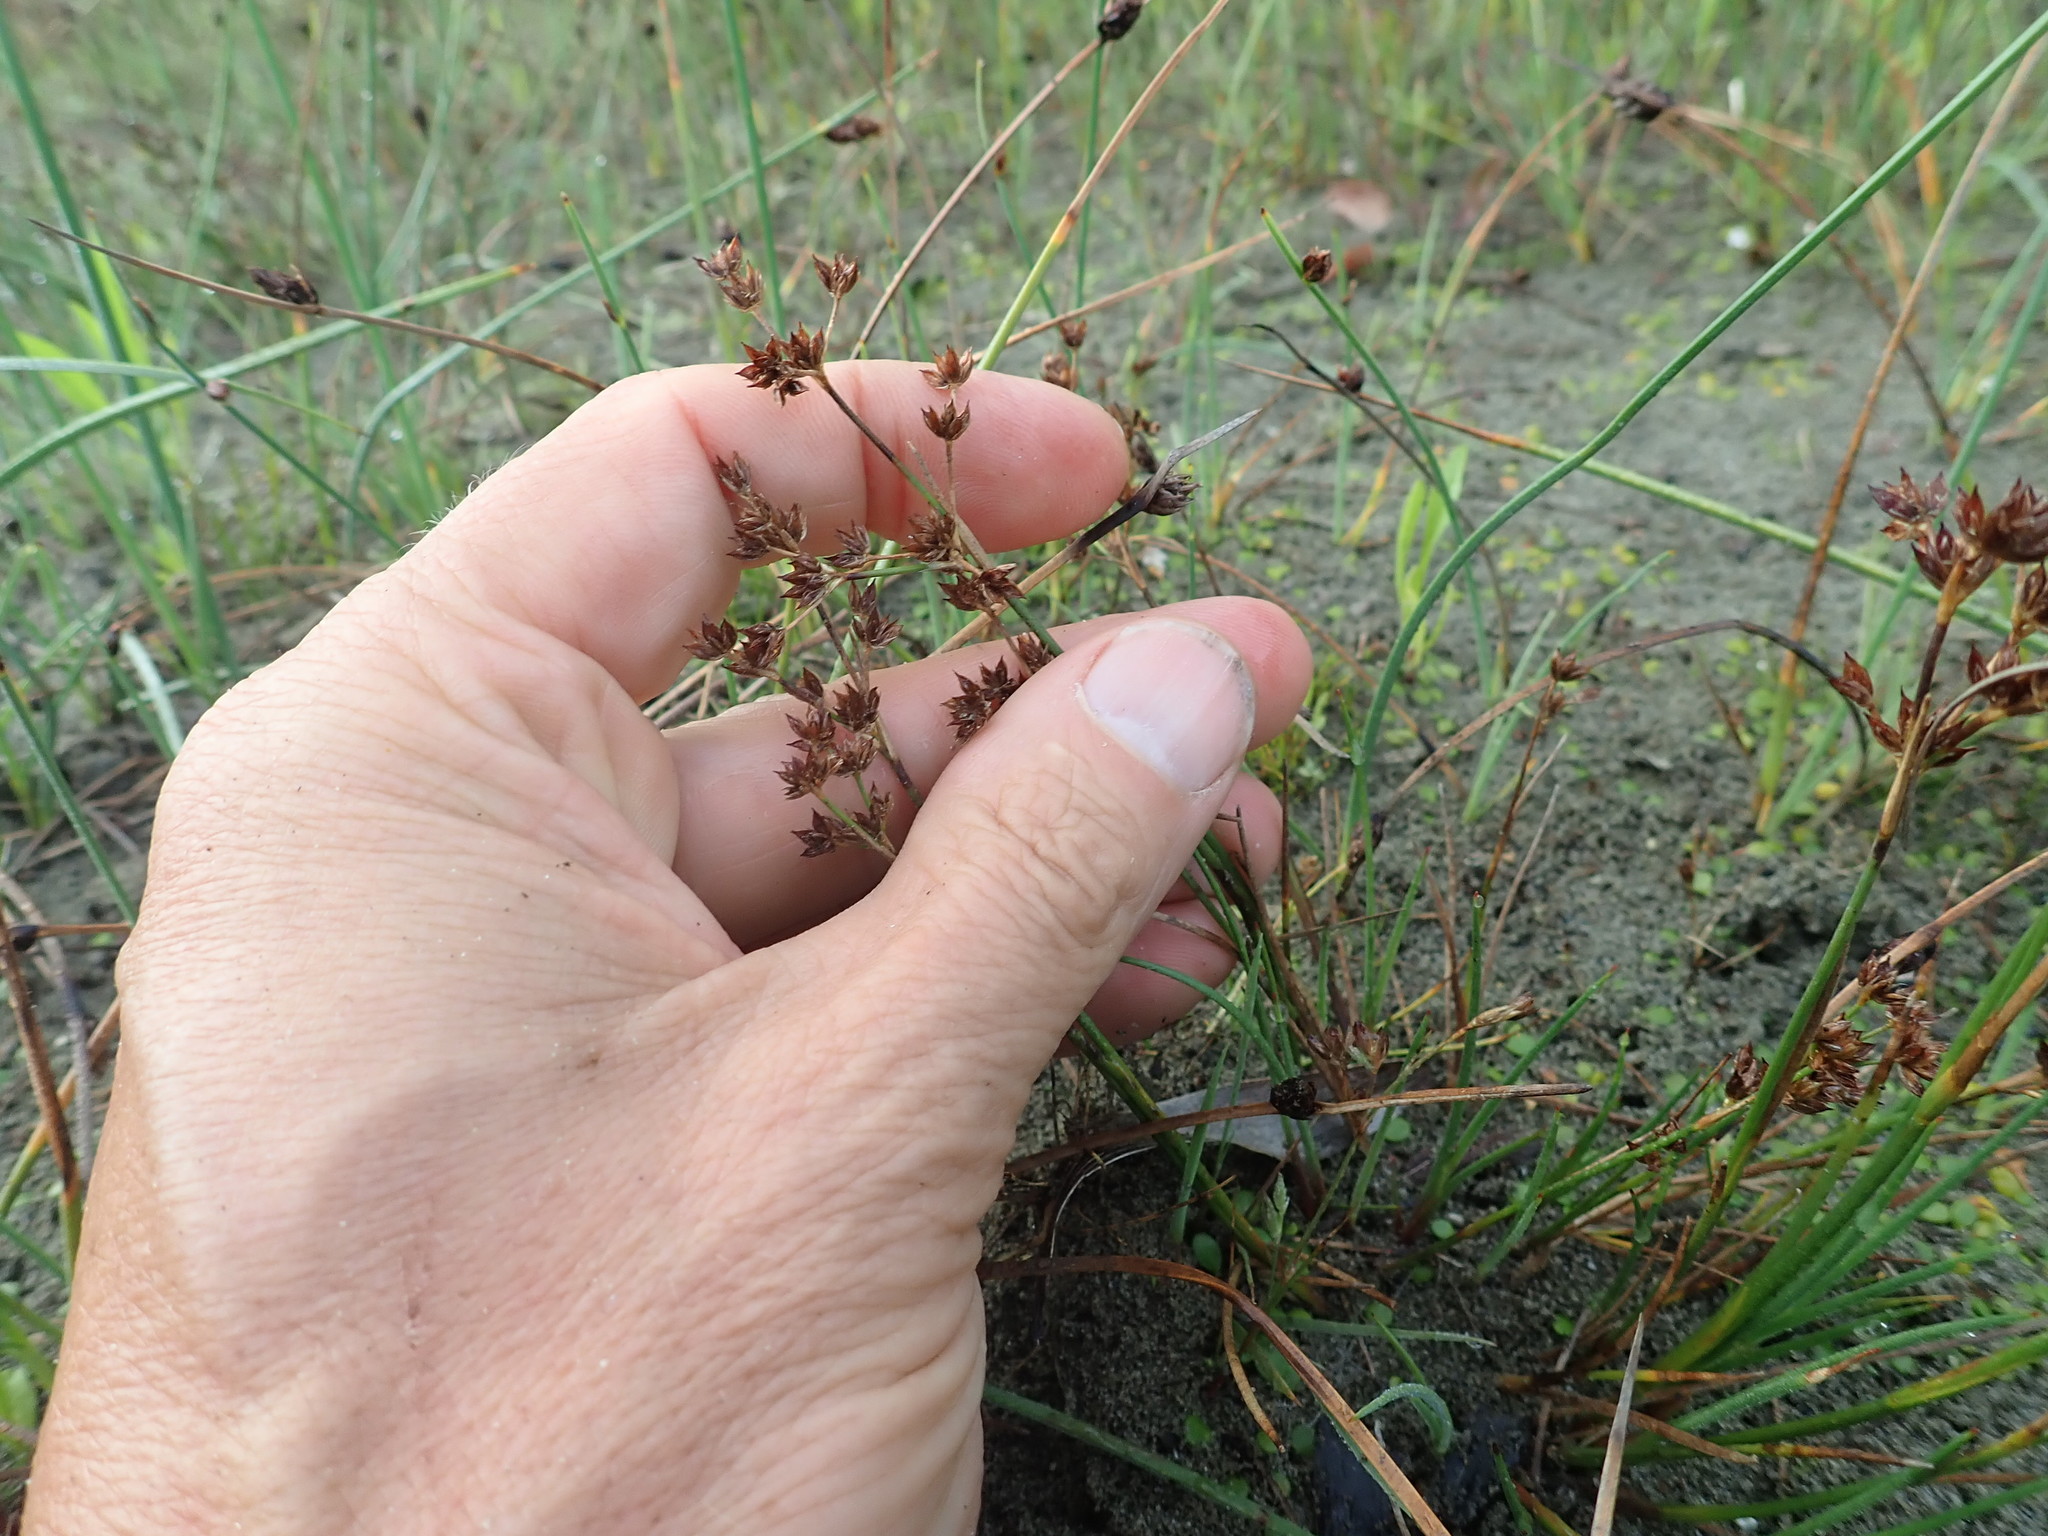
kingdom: Plantae
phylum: Tracheophyta
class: Liliopsida
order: Poales
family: Juncaceae
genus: Juncus
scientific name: Juncus articulatus
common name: Jointed rush
